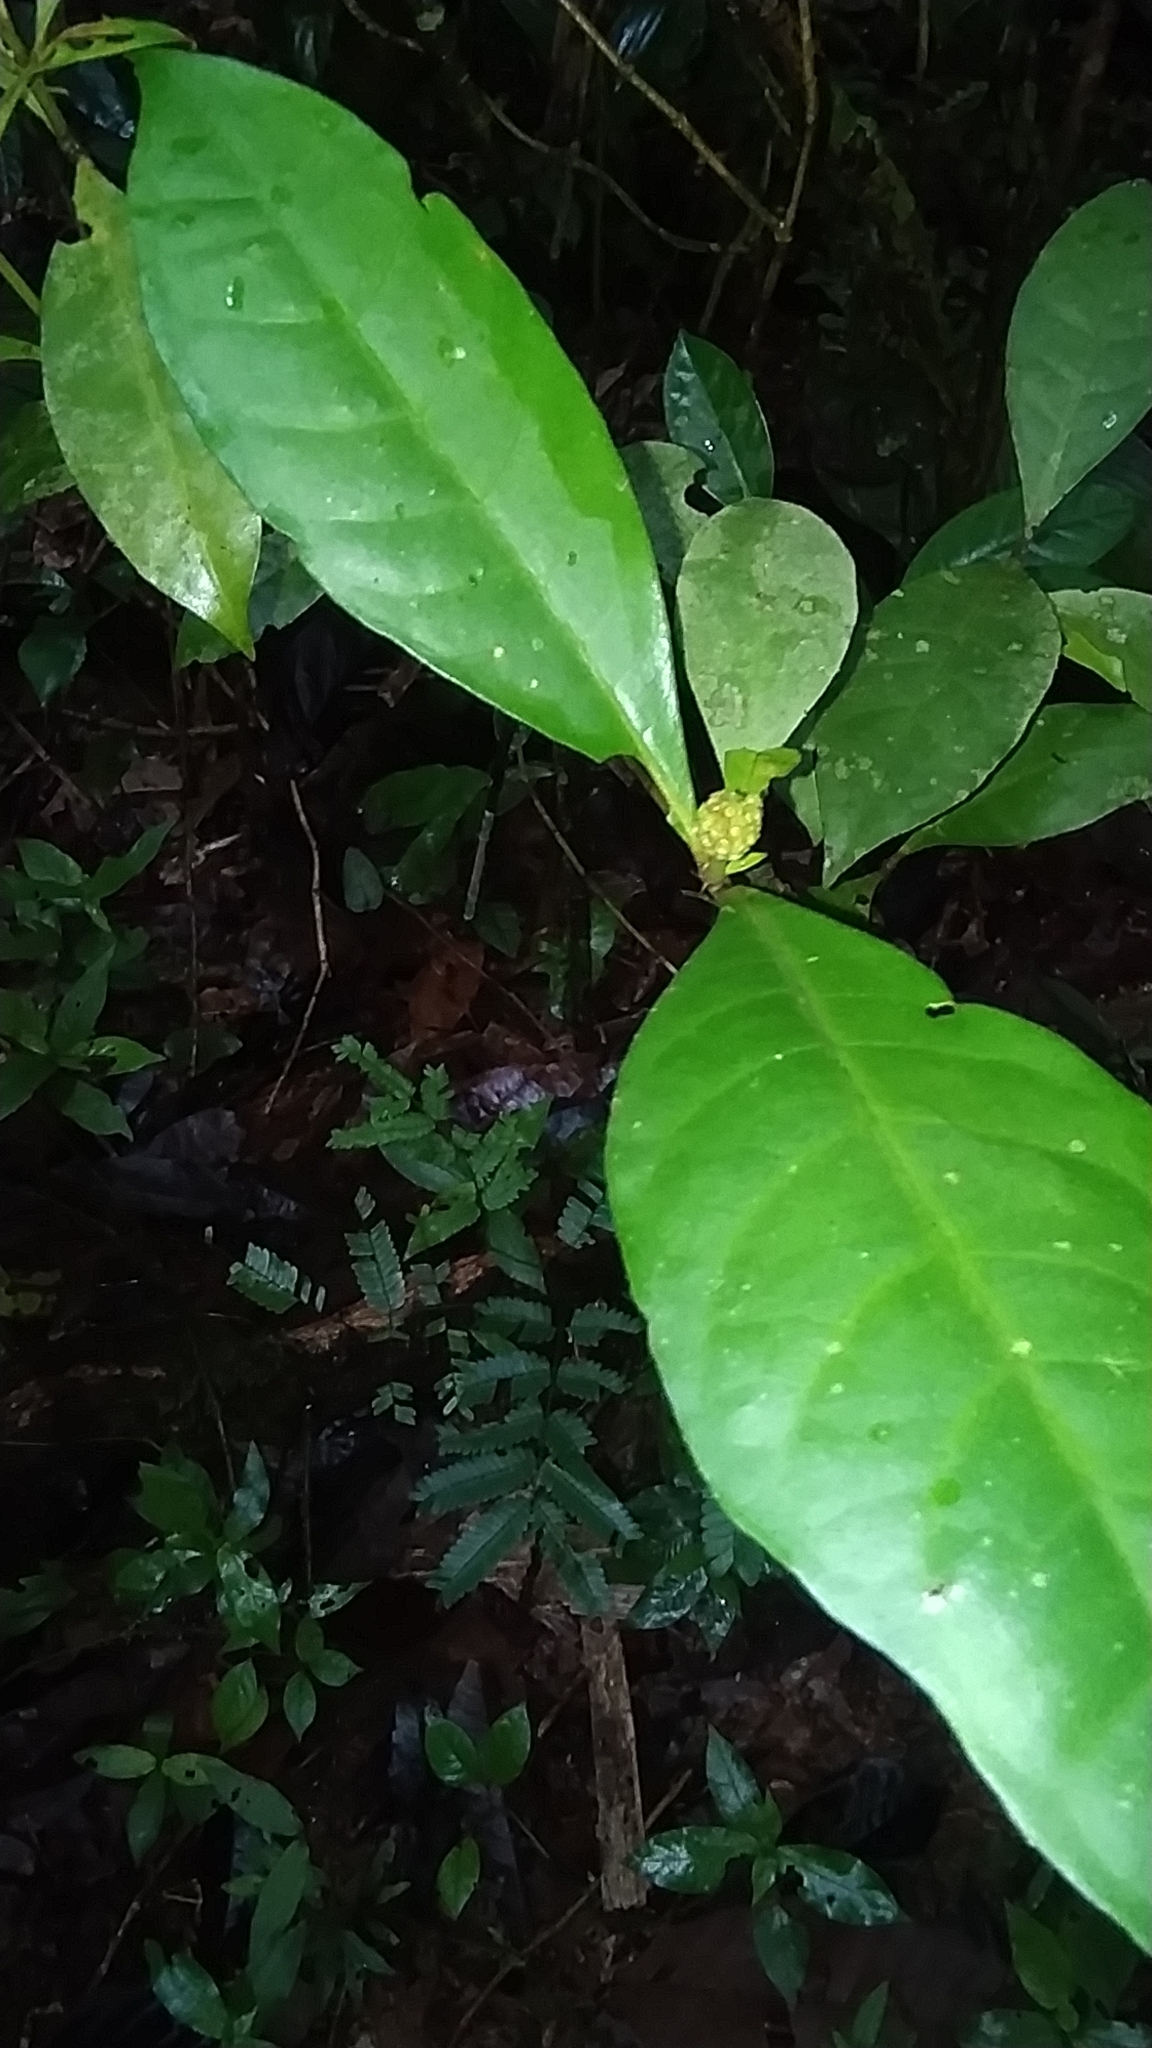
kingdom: Plantae
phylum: Tracheophyta
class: Magnoliopsida
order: Gentianales
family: Rubiaceae
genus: Eumachia
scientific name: Eumachia guianensis
